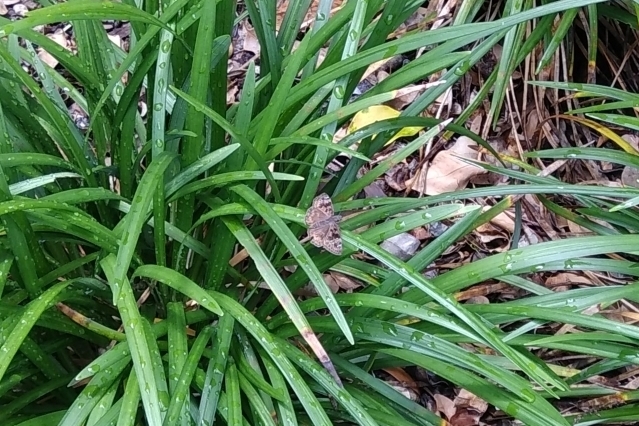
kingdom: Animalia
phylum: Arthropoda
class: Insecta
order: Lepidoptera
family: Hesperiidae
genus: Erynnis
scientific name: Erynnis horatius
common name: Horace's duskywing
